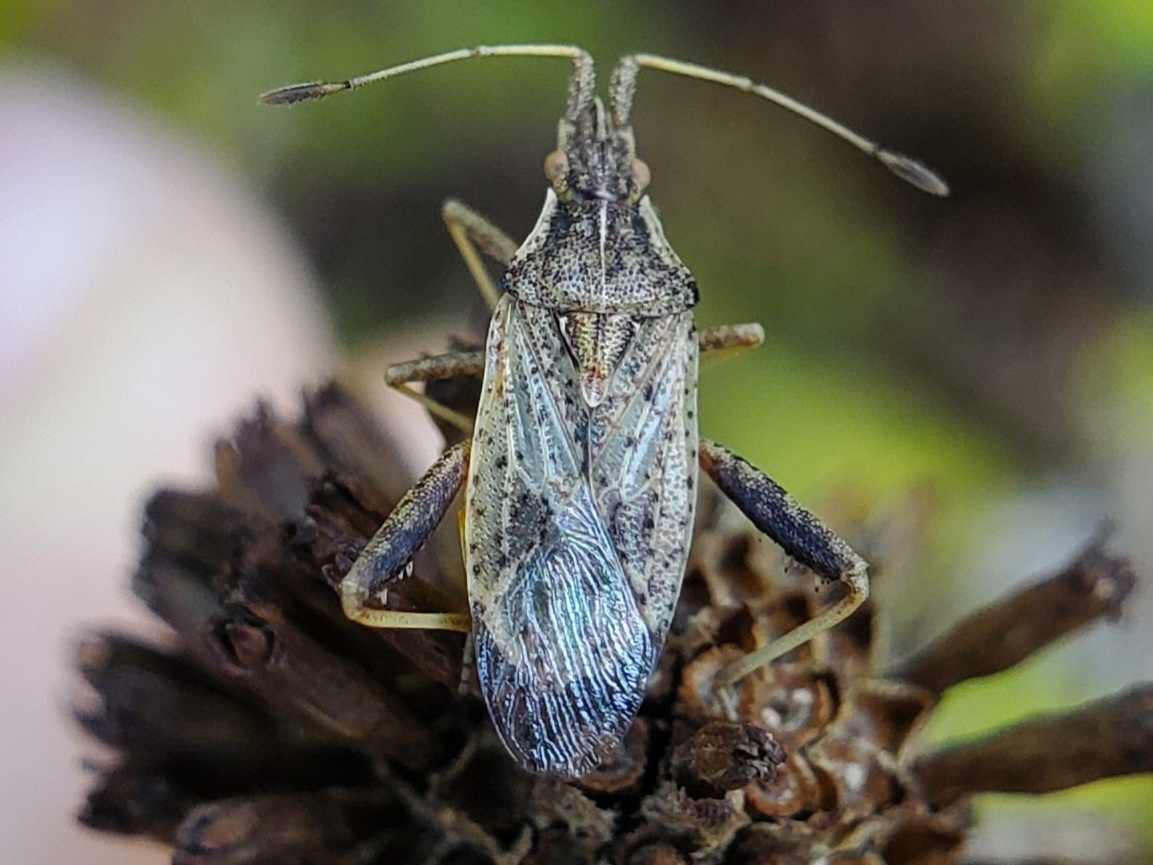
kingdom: Animalia
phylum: Arthropoda
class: Insecta
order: Hemiptera
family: Rhopalidae
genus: Harmostes
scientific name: Harmostes reflexulus
